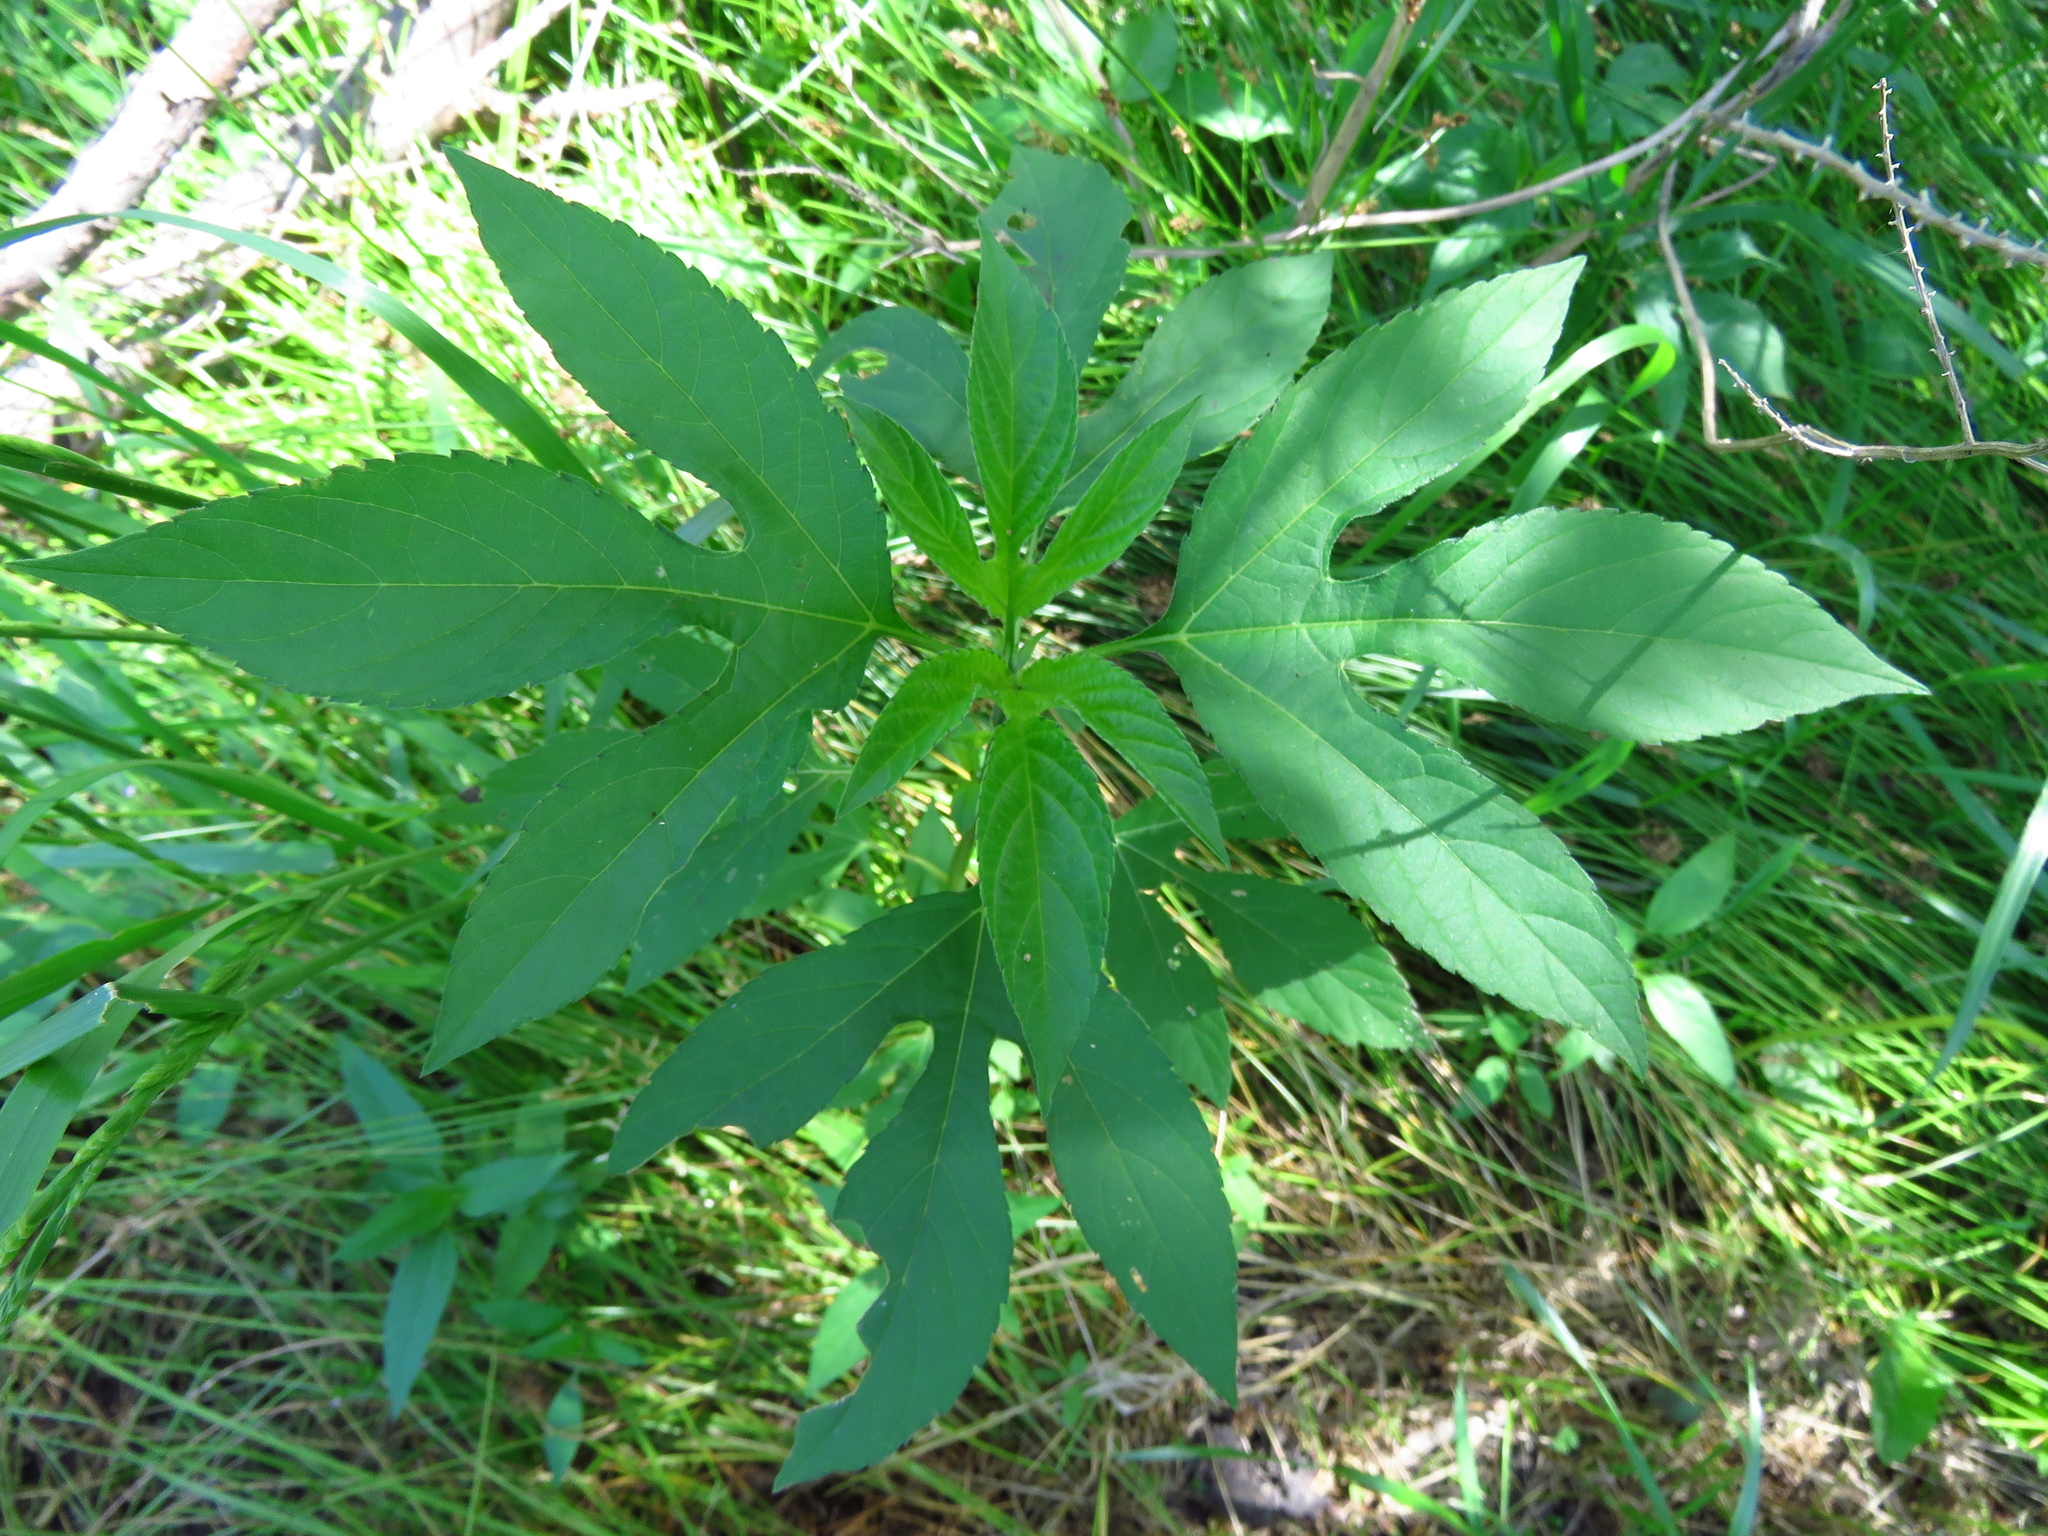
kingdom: Plantae
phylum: Tracheophyta
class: Magnoliopsida
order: Asterales
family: Asteraceae
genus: Ambrosia
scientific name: Ambrosia trifida
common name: Giant ragweed
